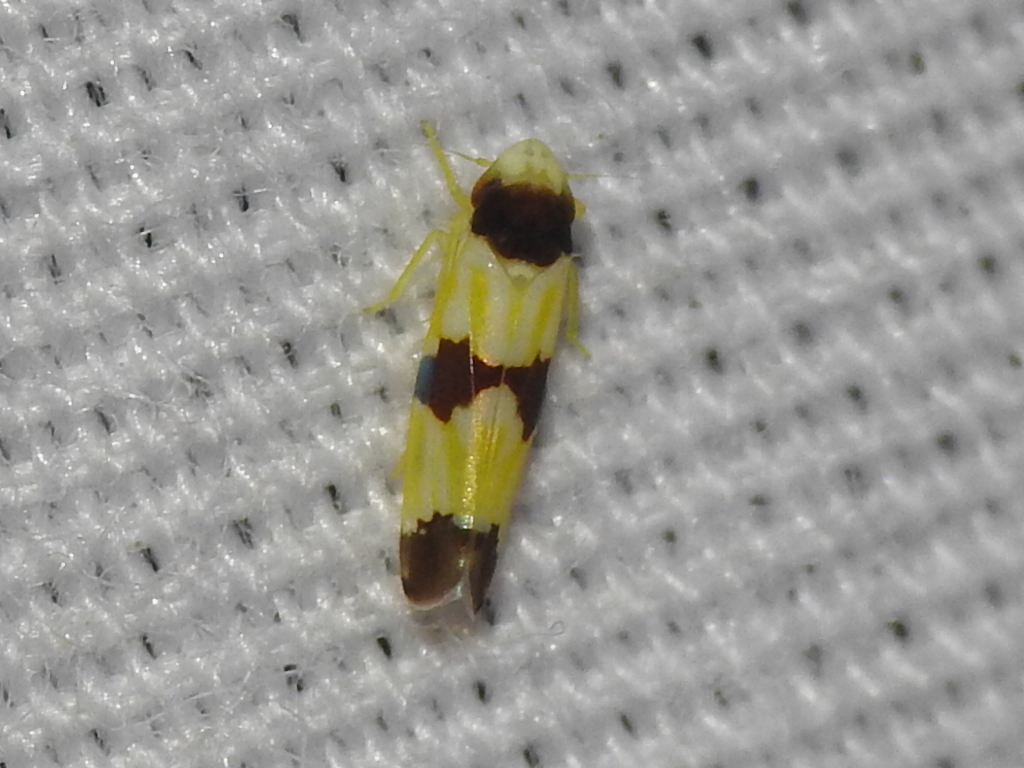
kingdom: Animalia
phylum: Arthropoda
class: Insecta
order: Hemiptera
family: Cicadellidae
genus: Erythroneura
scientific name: Erythroneura tricincta
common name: The threebanded grape leafhopper
